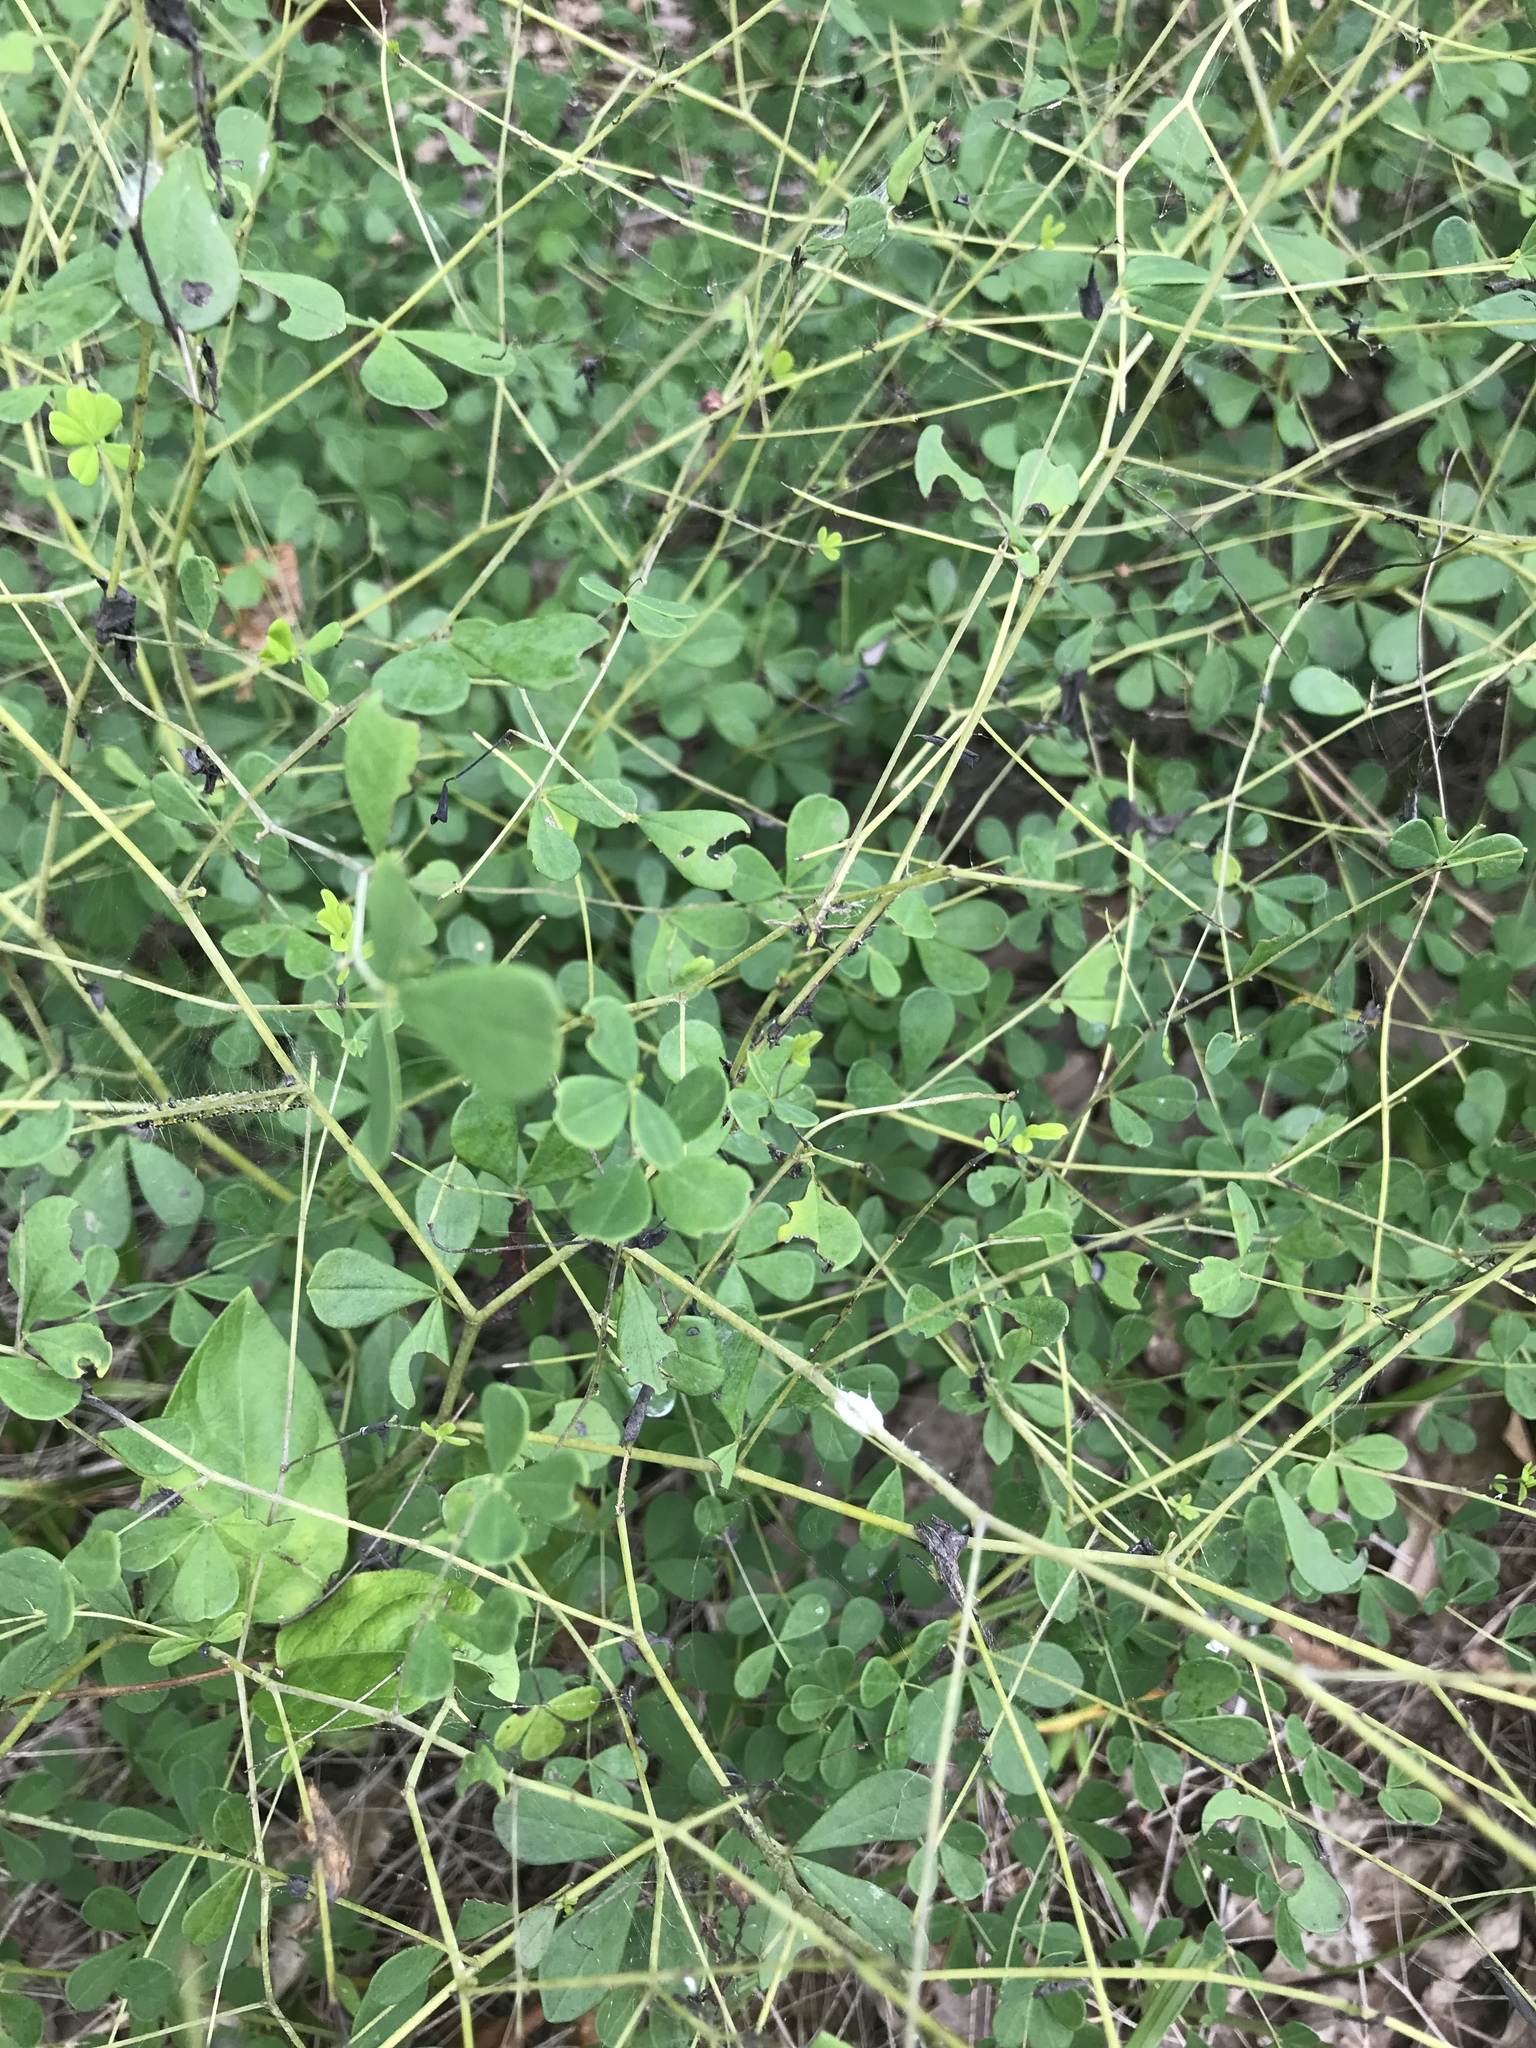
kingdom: Plantae
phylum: Tracheophyta
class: Magnoliopsida
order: Fabales
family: Fabaceae
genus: Baptisia
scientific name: Baptisia tinctoria
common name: Wild indigo
